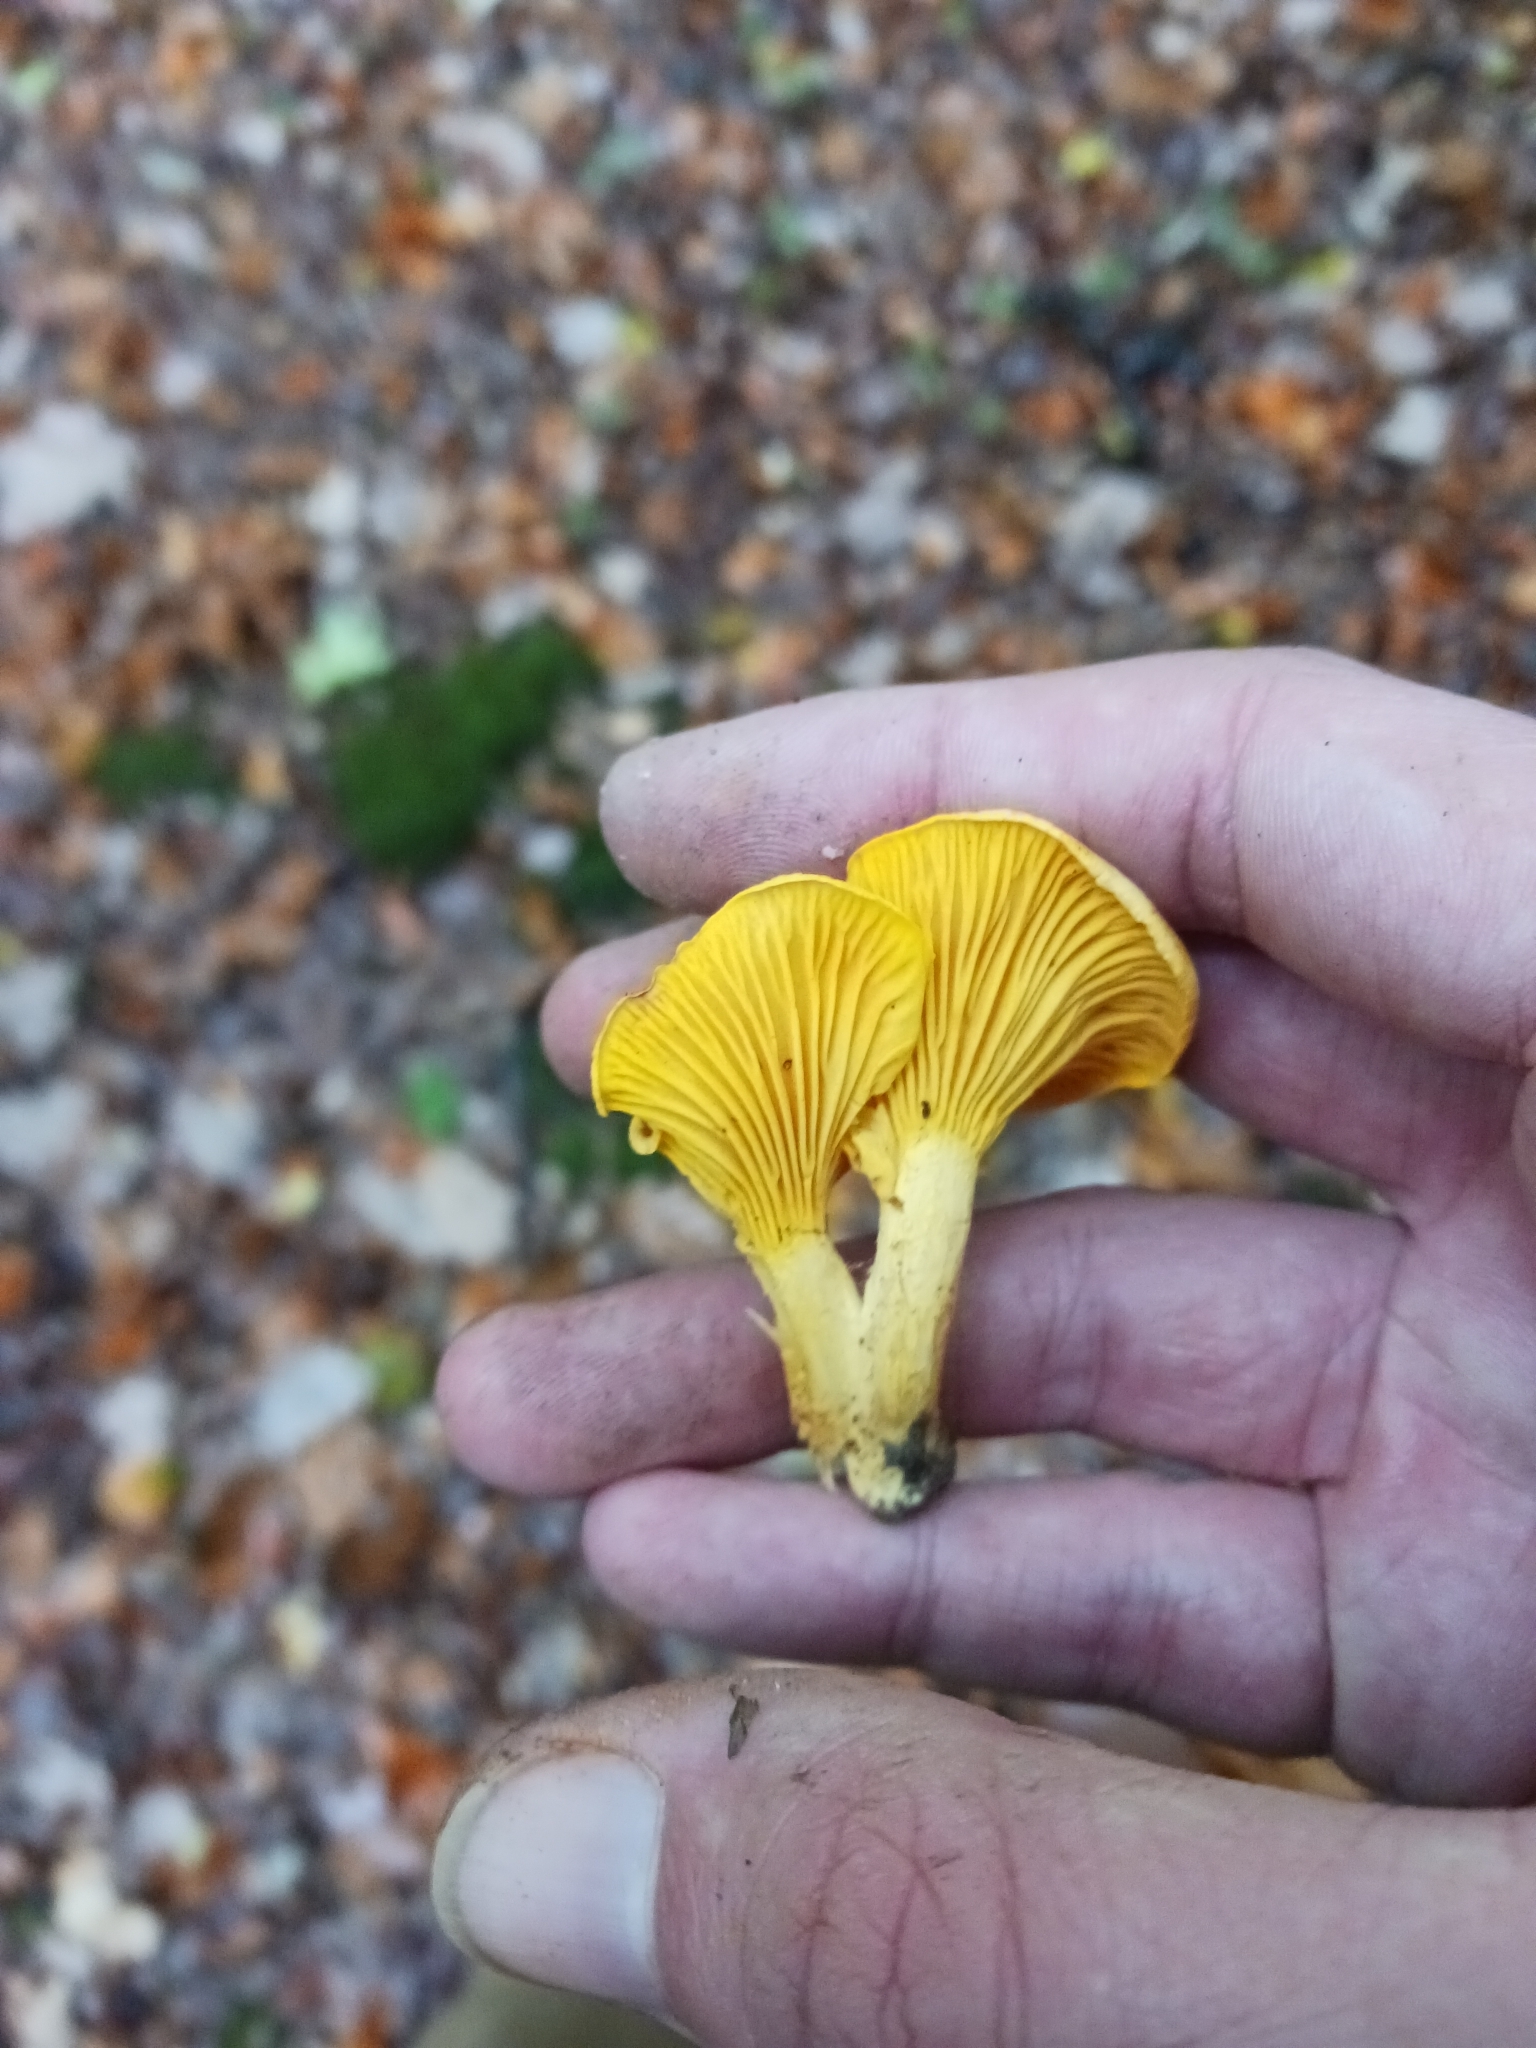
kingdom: Fungi
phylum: Basidiomycota
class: Agaricomycetes
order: Cantharellales
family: Hydnaceae
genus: Cantharellus
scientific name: Cantharellus cibarius
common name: Chanterelle
